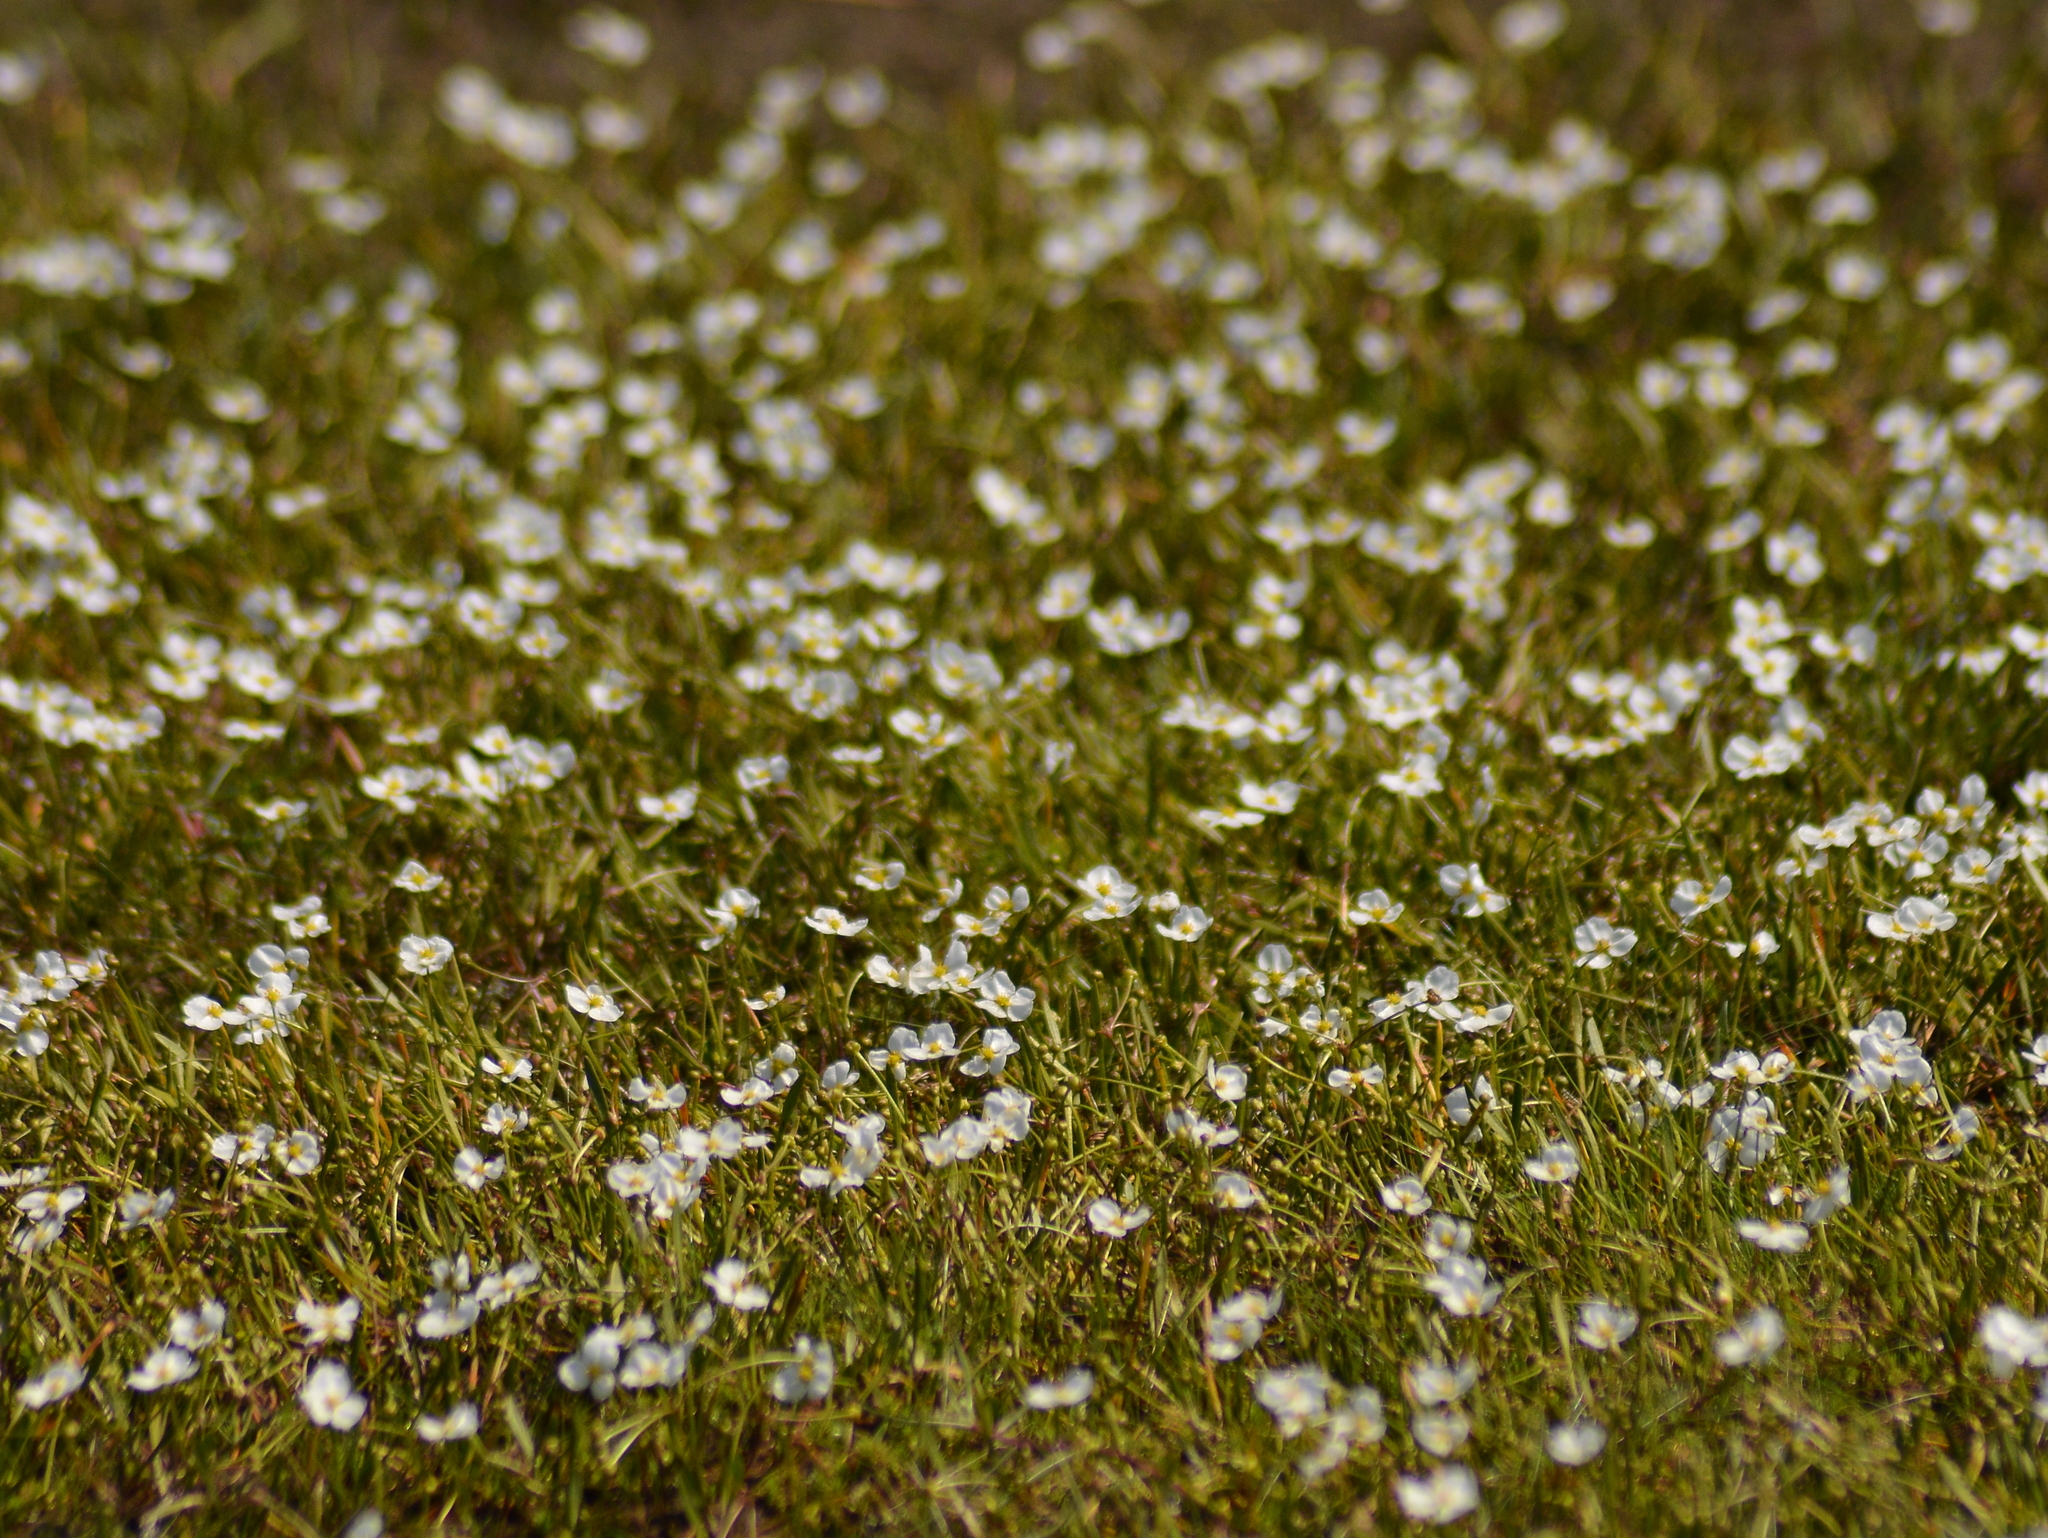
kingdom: Plantae
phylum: Tracheophyta
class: Liliopsida
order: Alismatales
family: Alismataceae
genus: Helanthium
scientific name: Helanthium tenellum
